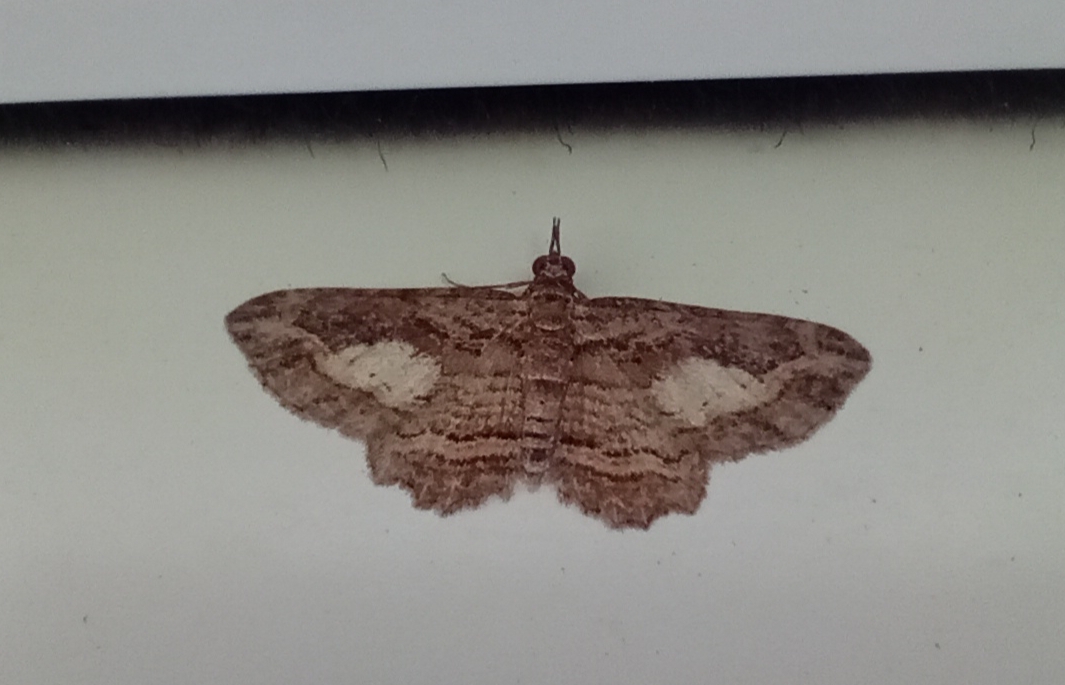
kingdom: Animalia
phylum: Arthropoda
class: Insecta
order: Lepidoptera
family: Geometridae
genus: Chloroclystis
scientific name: Chloroclystis filata
